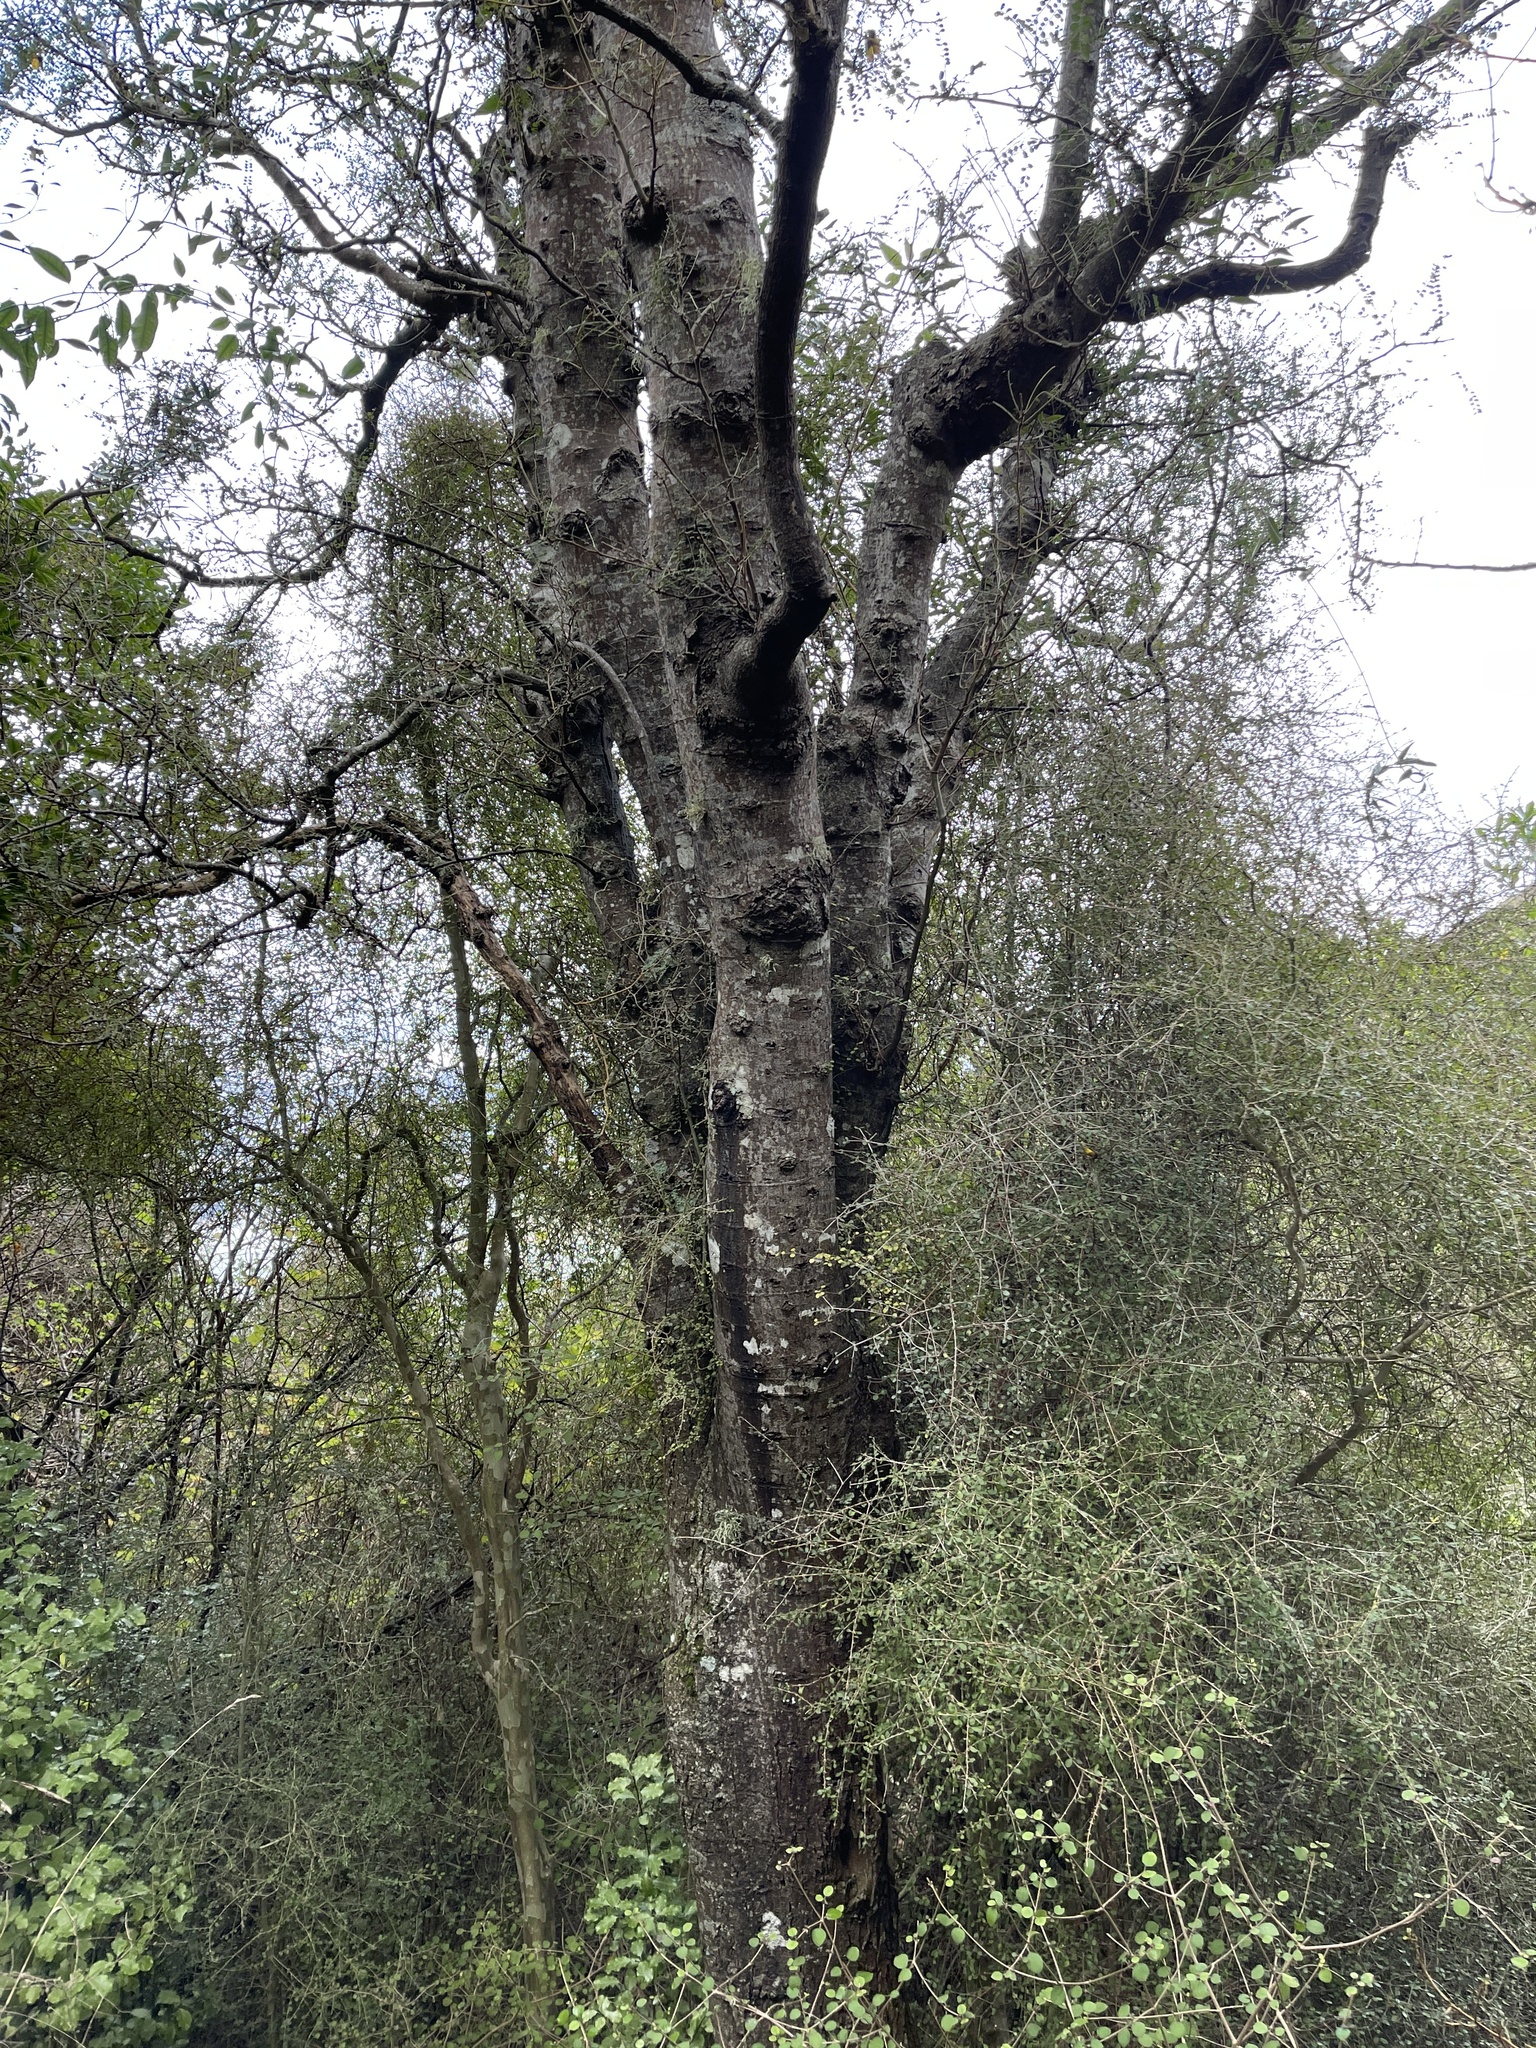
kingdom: Plantae
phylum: Tracheophyta
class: Magnoliopsida
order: Fabales
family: Fabaceae
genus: Sophora
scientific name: Sophora microphylla
